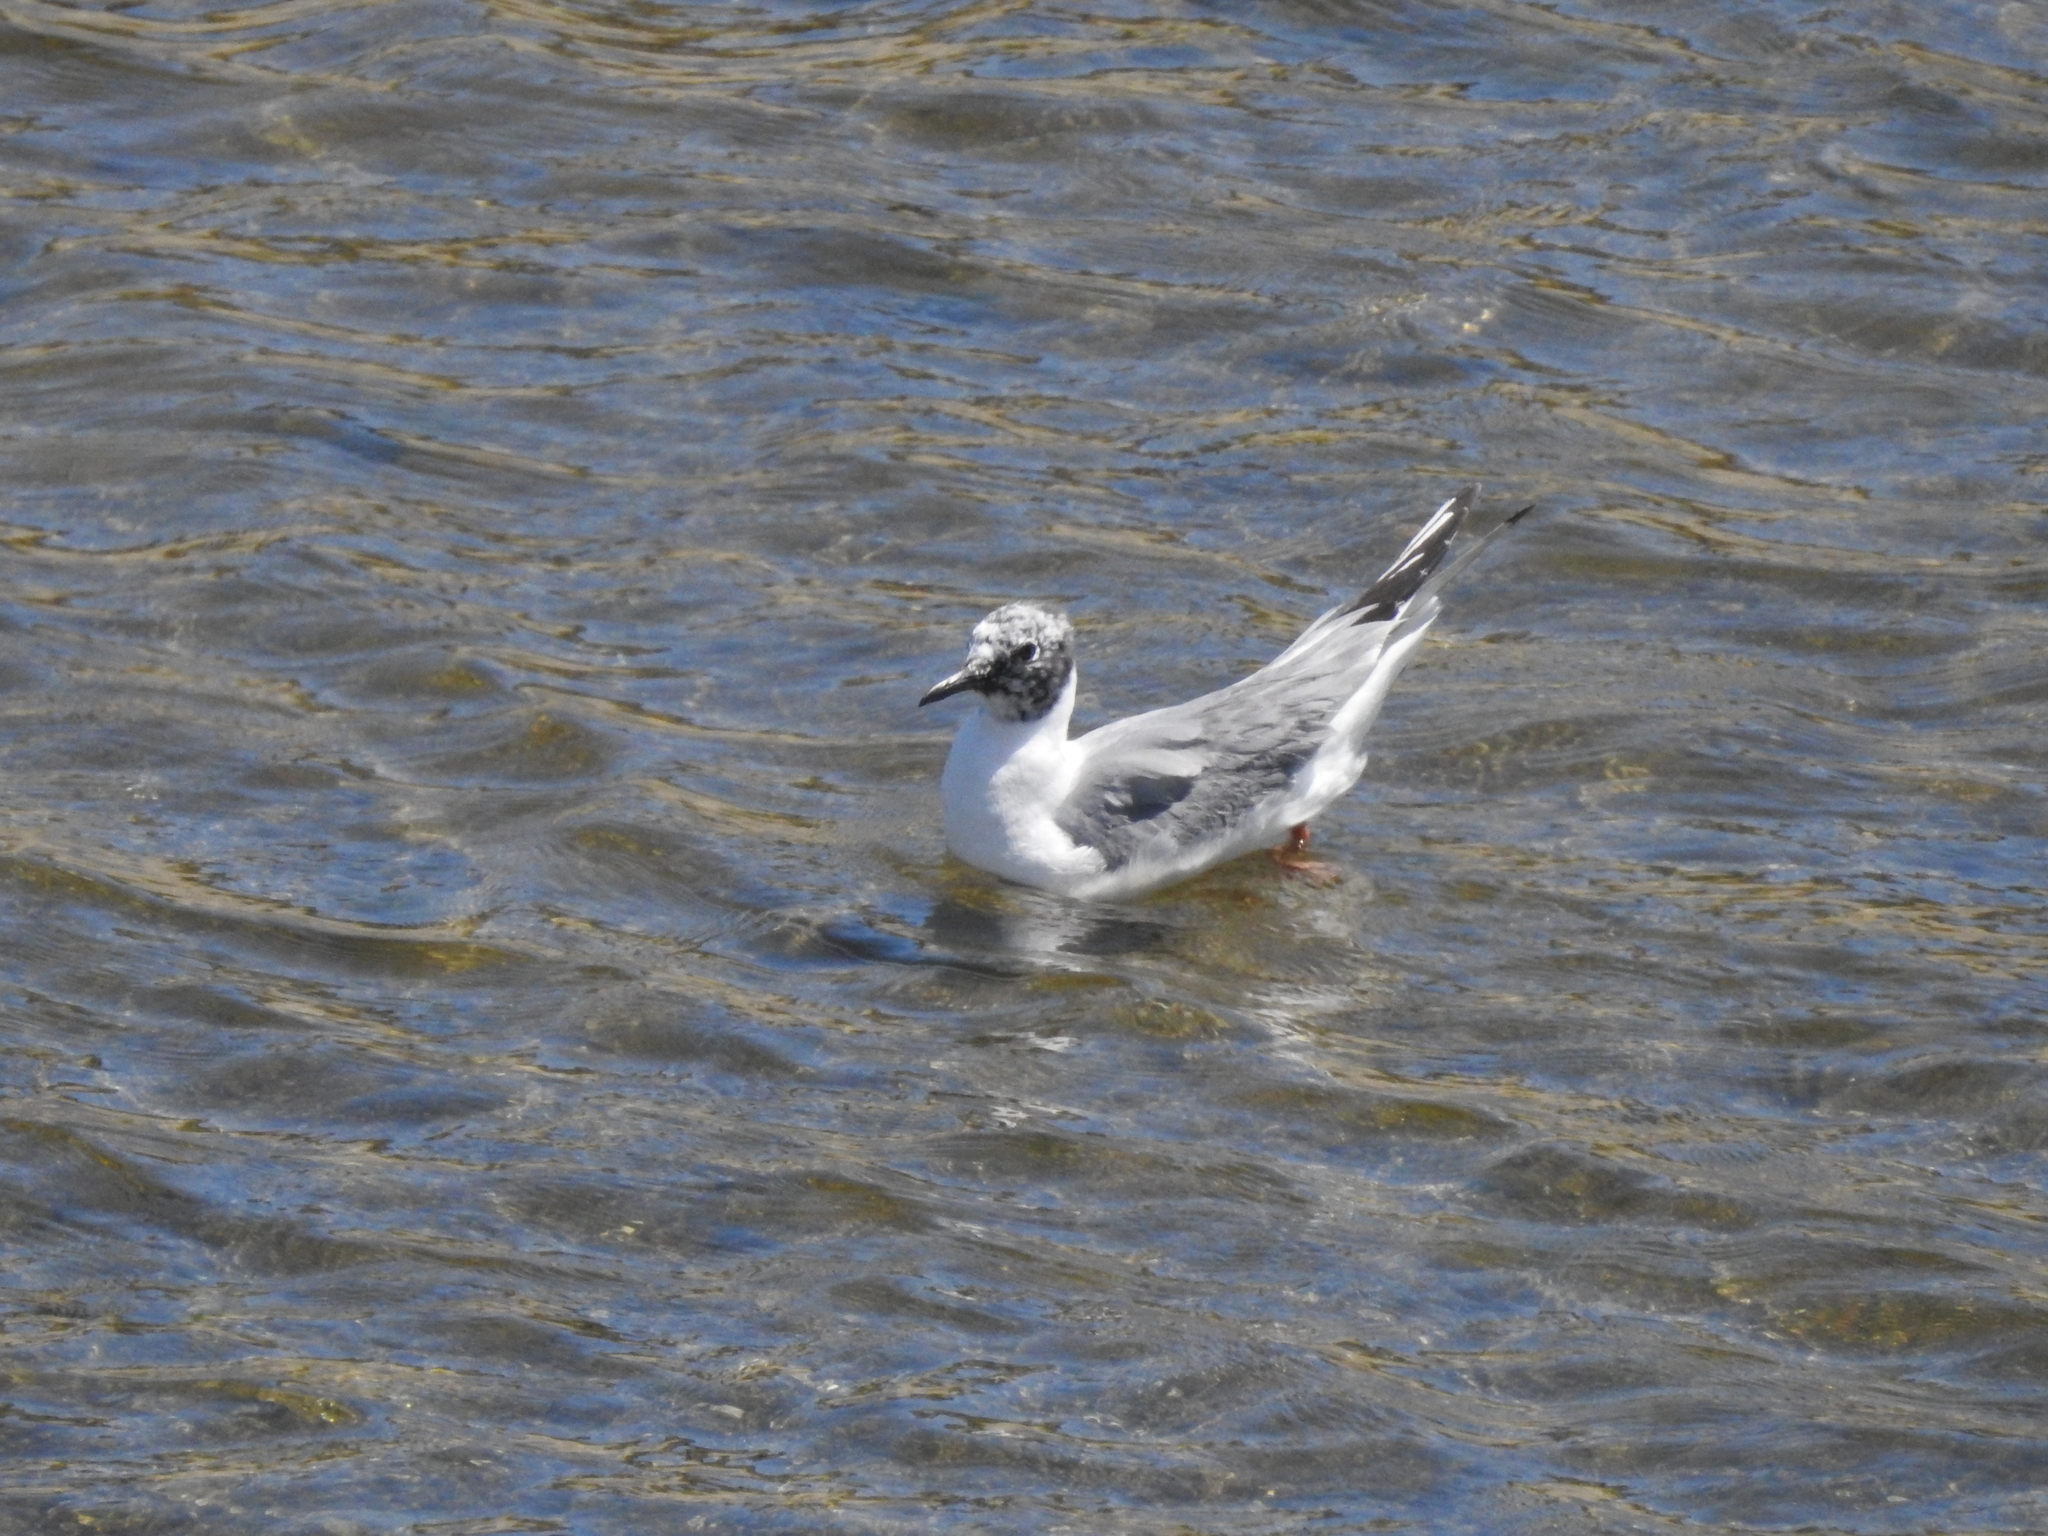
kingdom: Animalia
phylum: Chordata
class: Aves
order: Charadriiformes
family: Laridae
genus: Chroicocephalus
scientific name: Chroicocephalus philadelphia
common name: Bonaparte's gull
